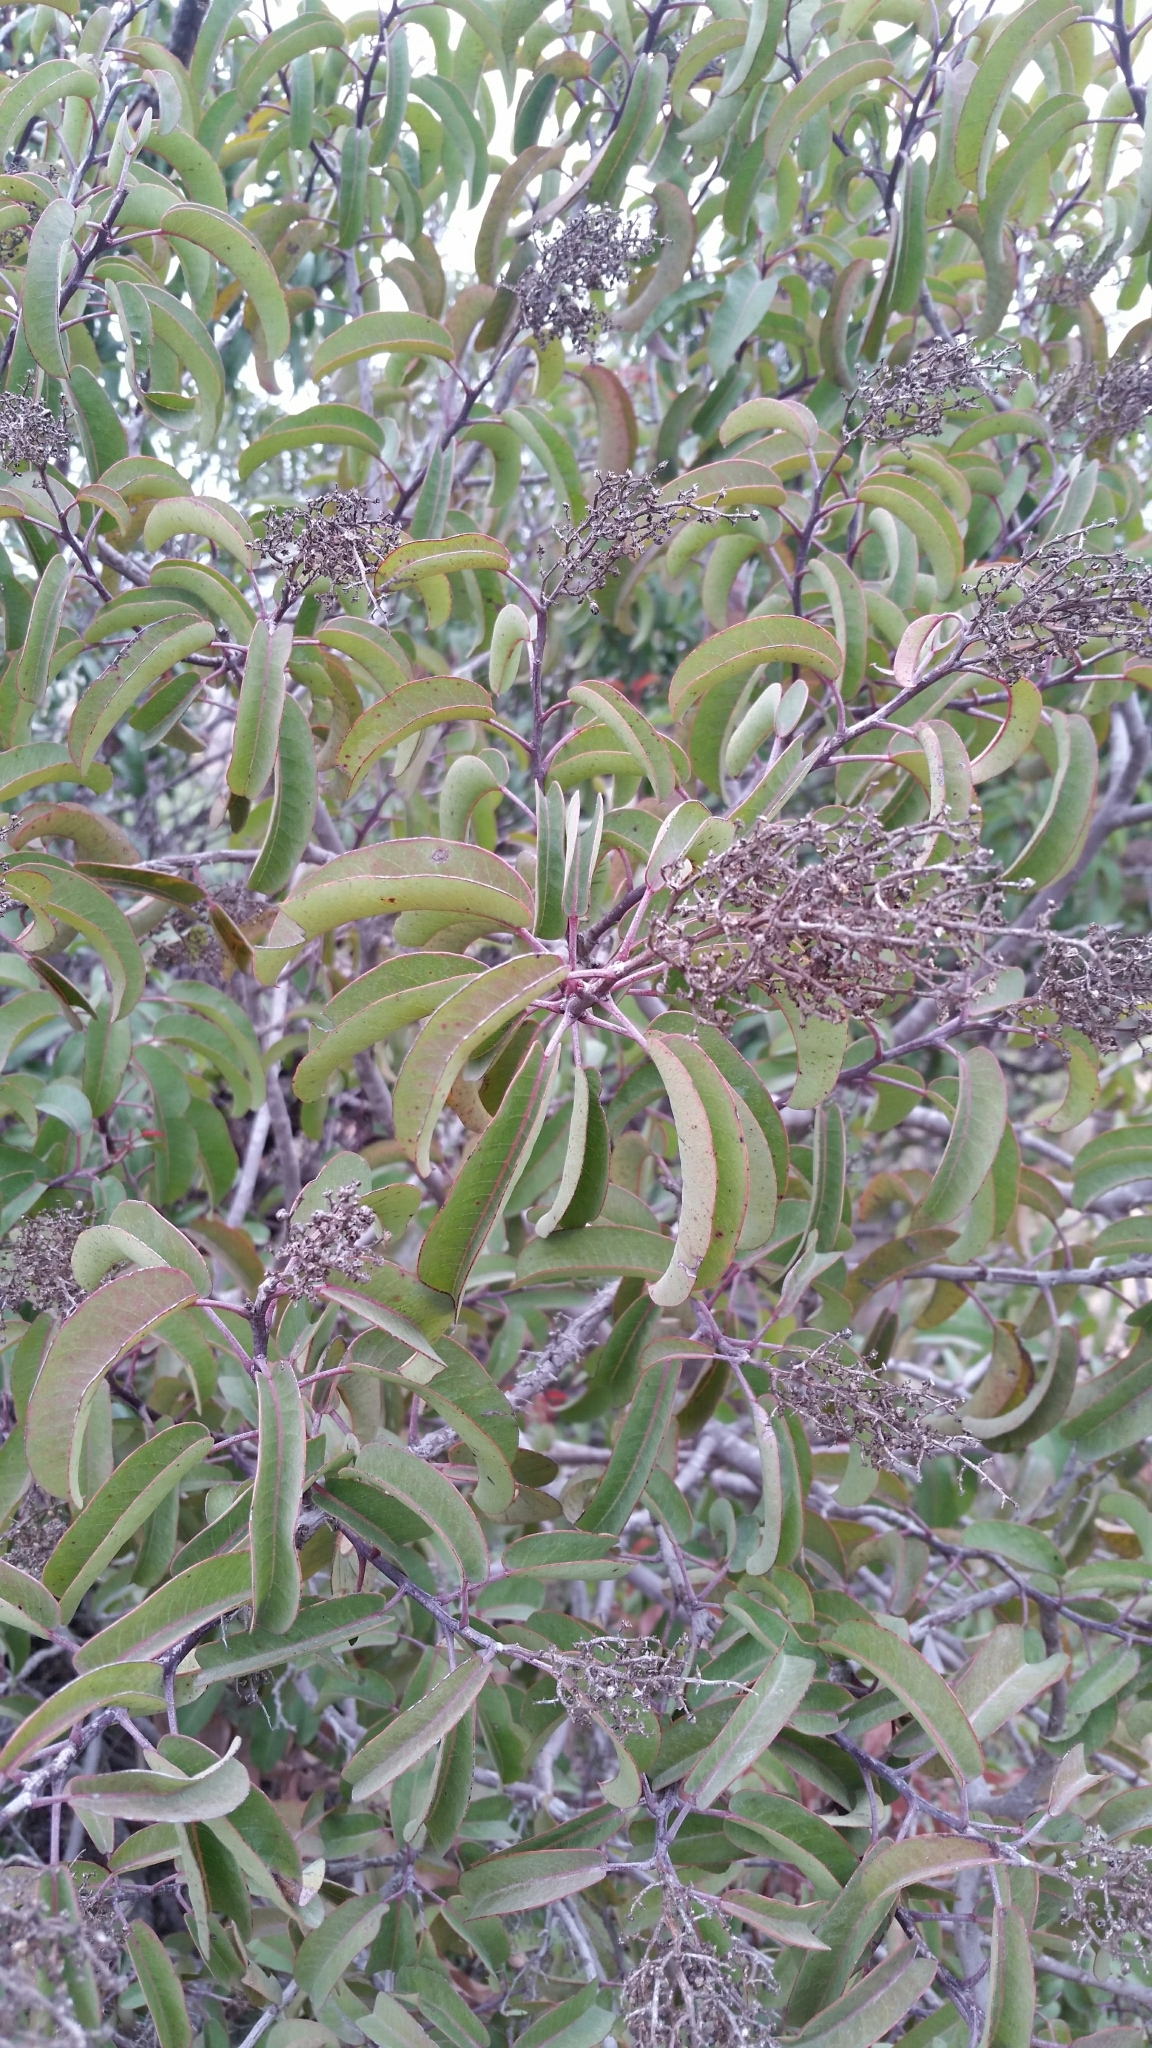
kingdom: Plantae
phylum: Tracheophyta
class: Magnoliopsida
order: Sapindales
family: Anacardiaceae
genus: Malosma
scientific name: Malosma laurina
